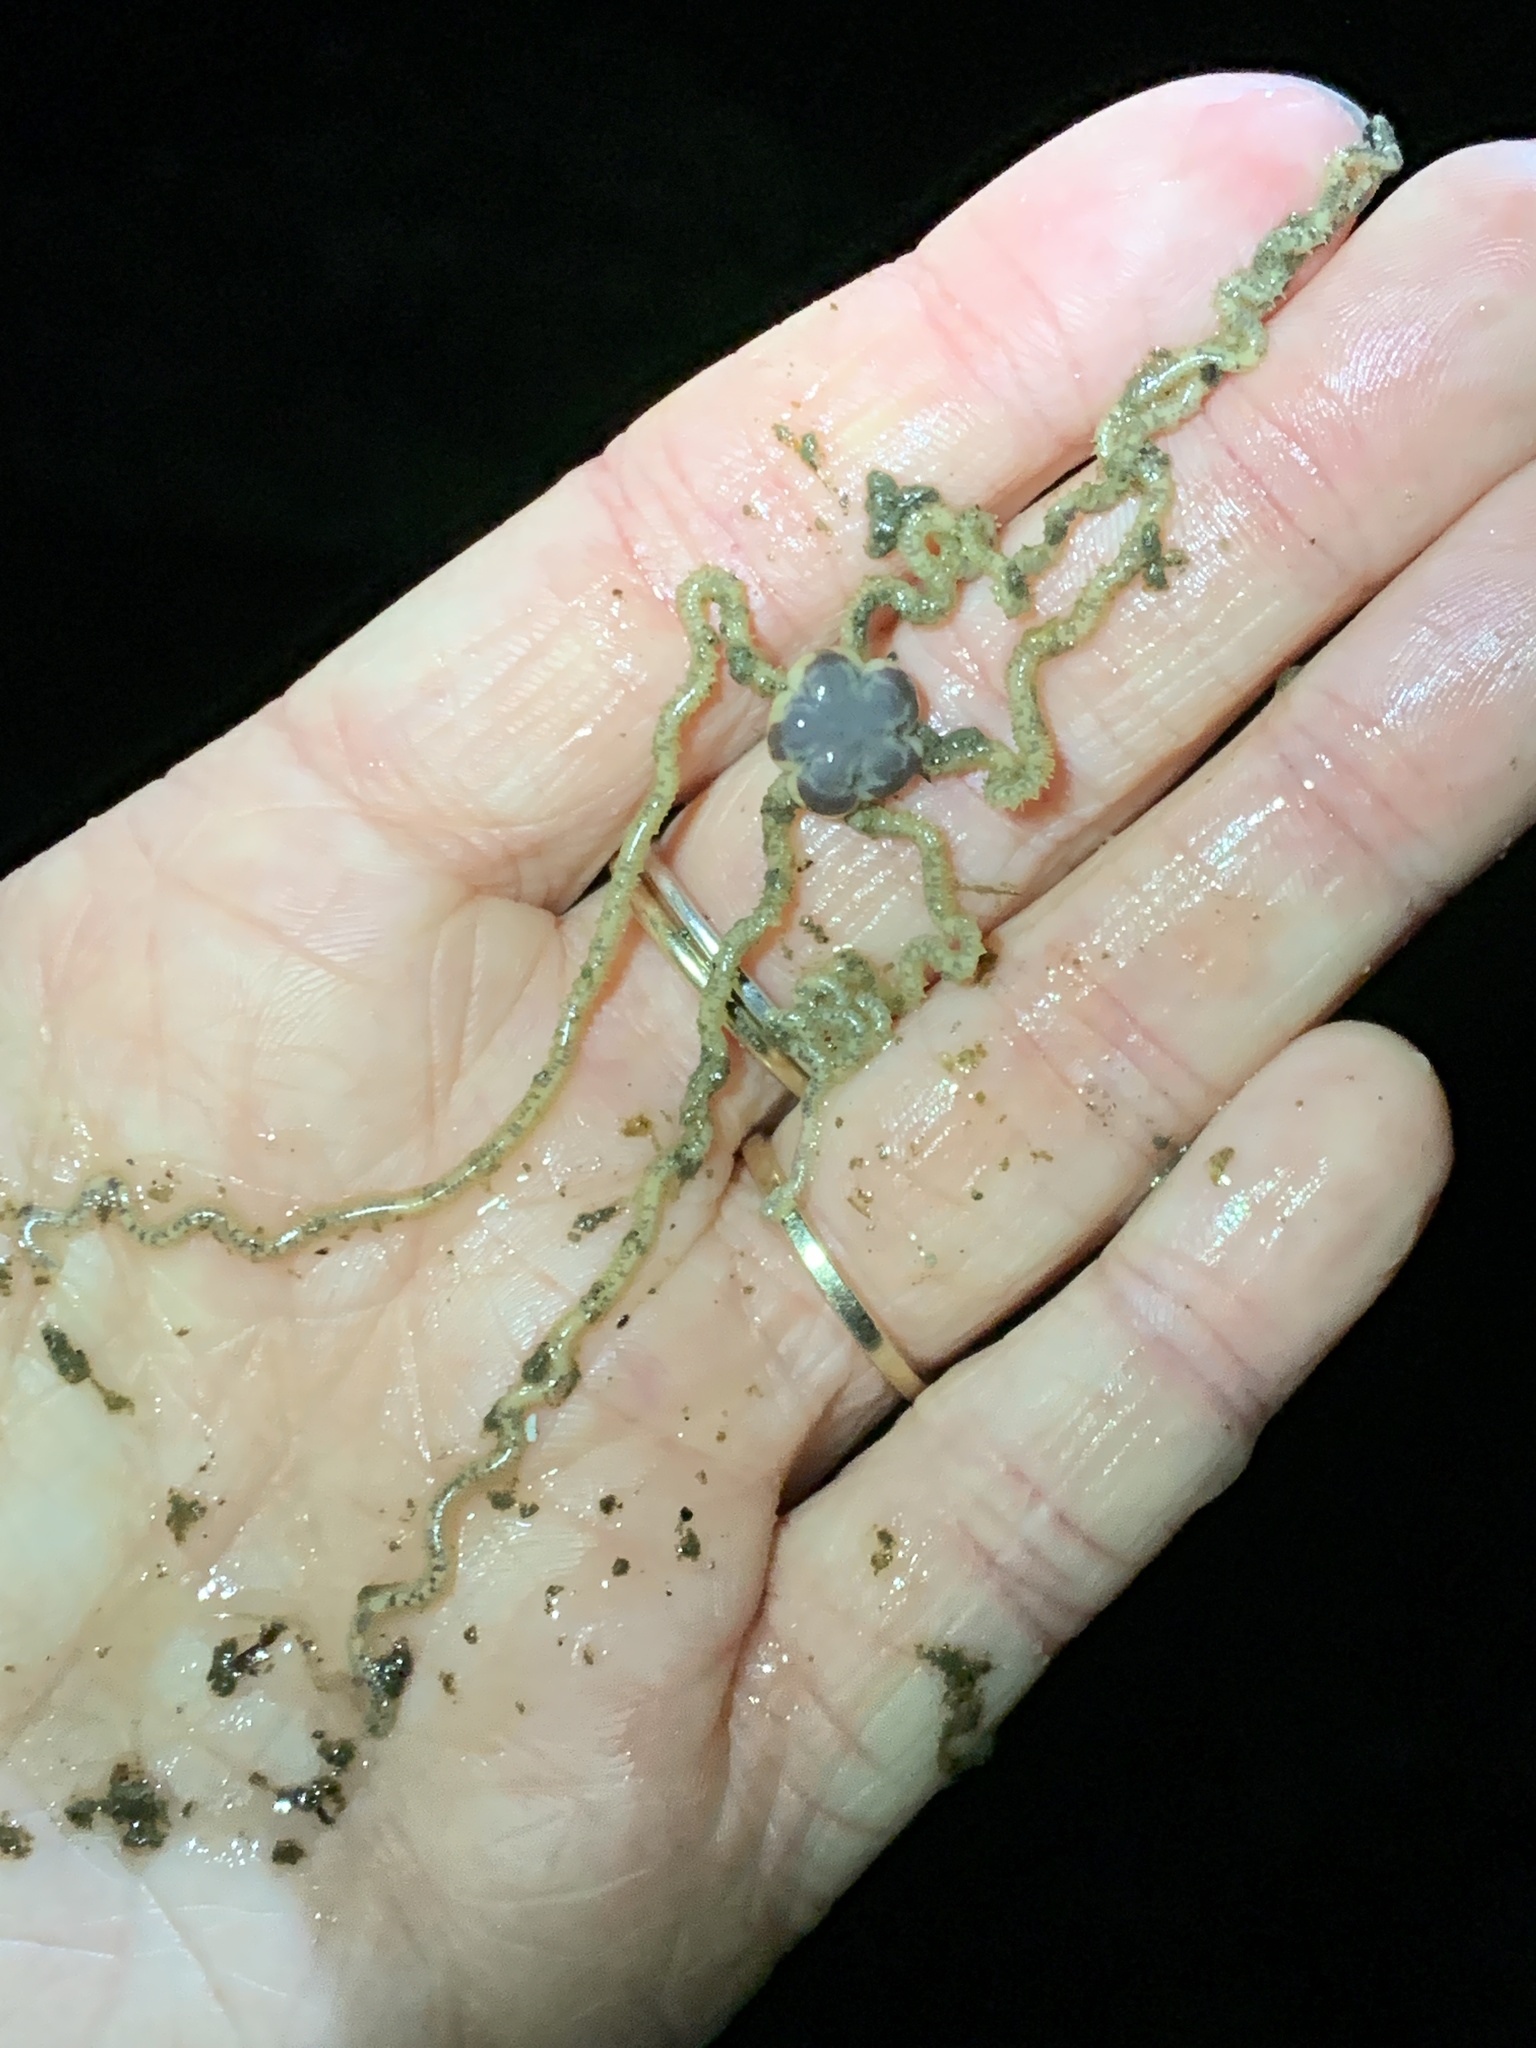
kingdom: Animalia
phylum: Echinodermata
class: Ophiuroidea
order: Amphilepidida
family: Amphiuridae
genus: Amphiodia
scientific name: Amphiodia occidentalis
